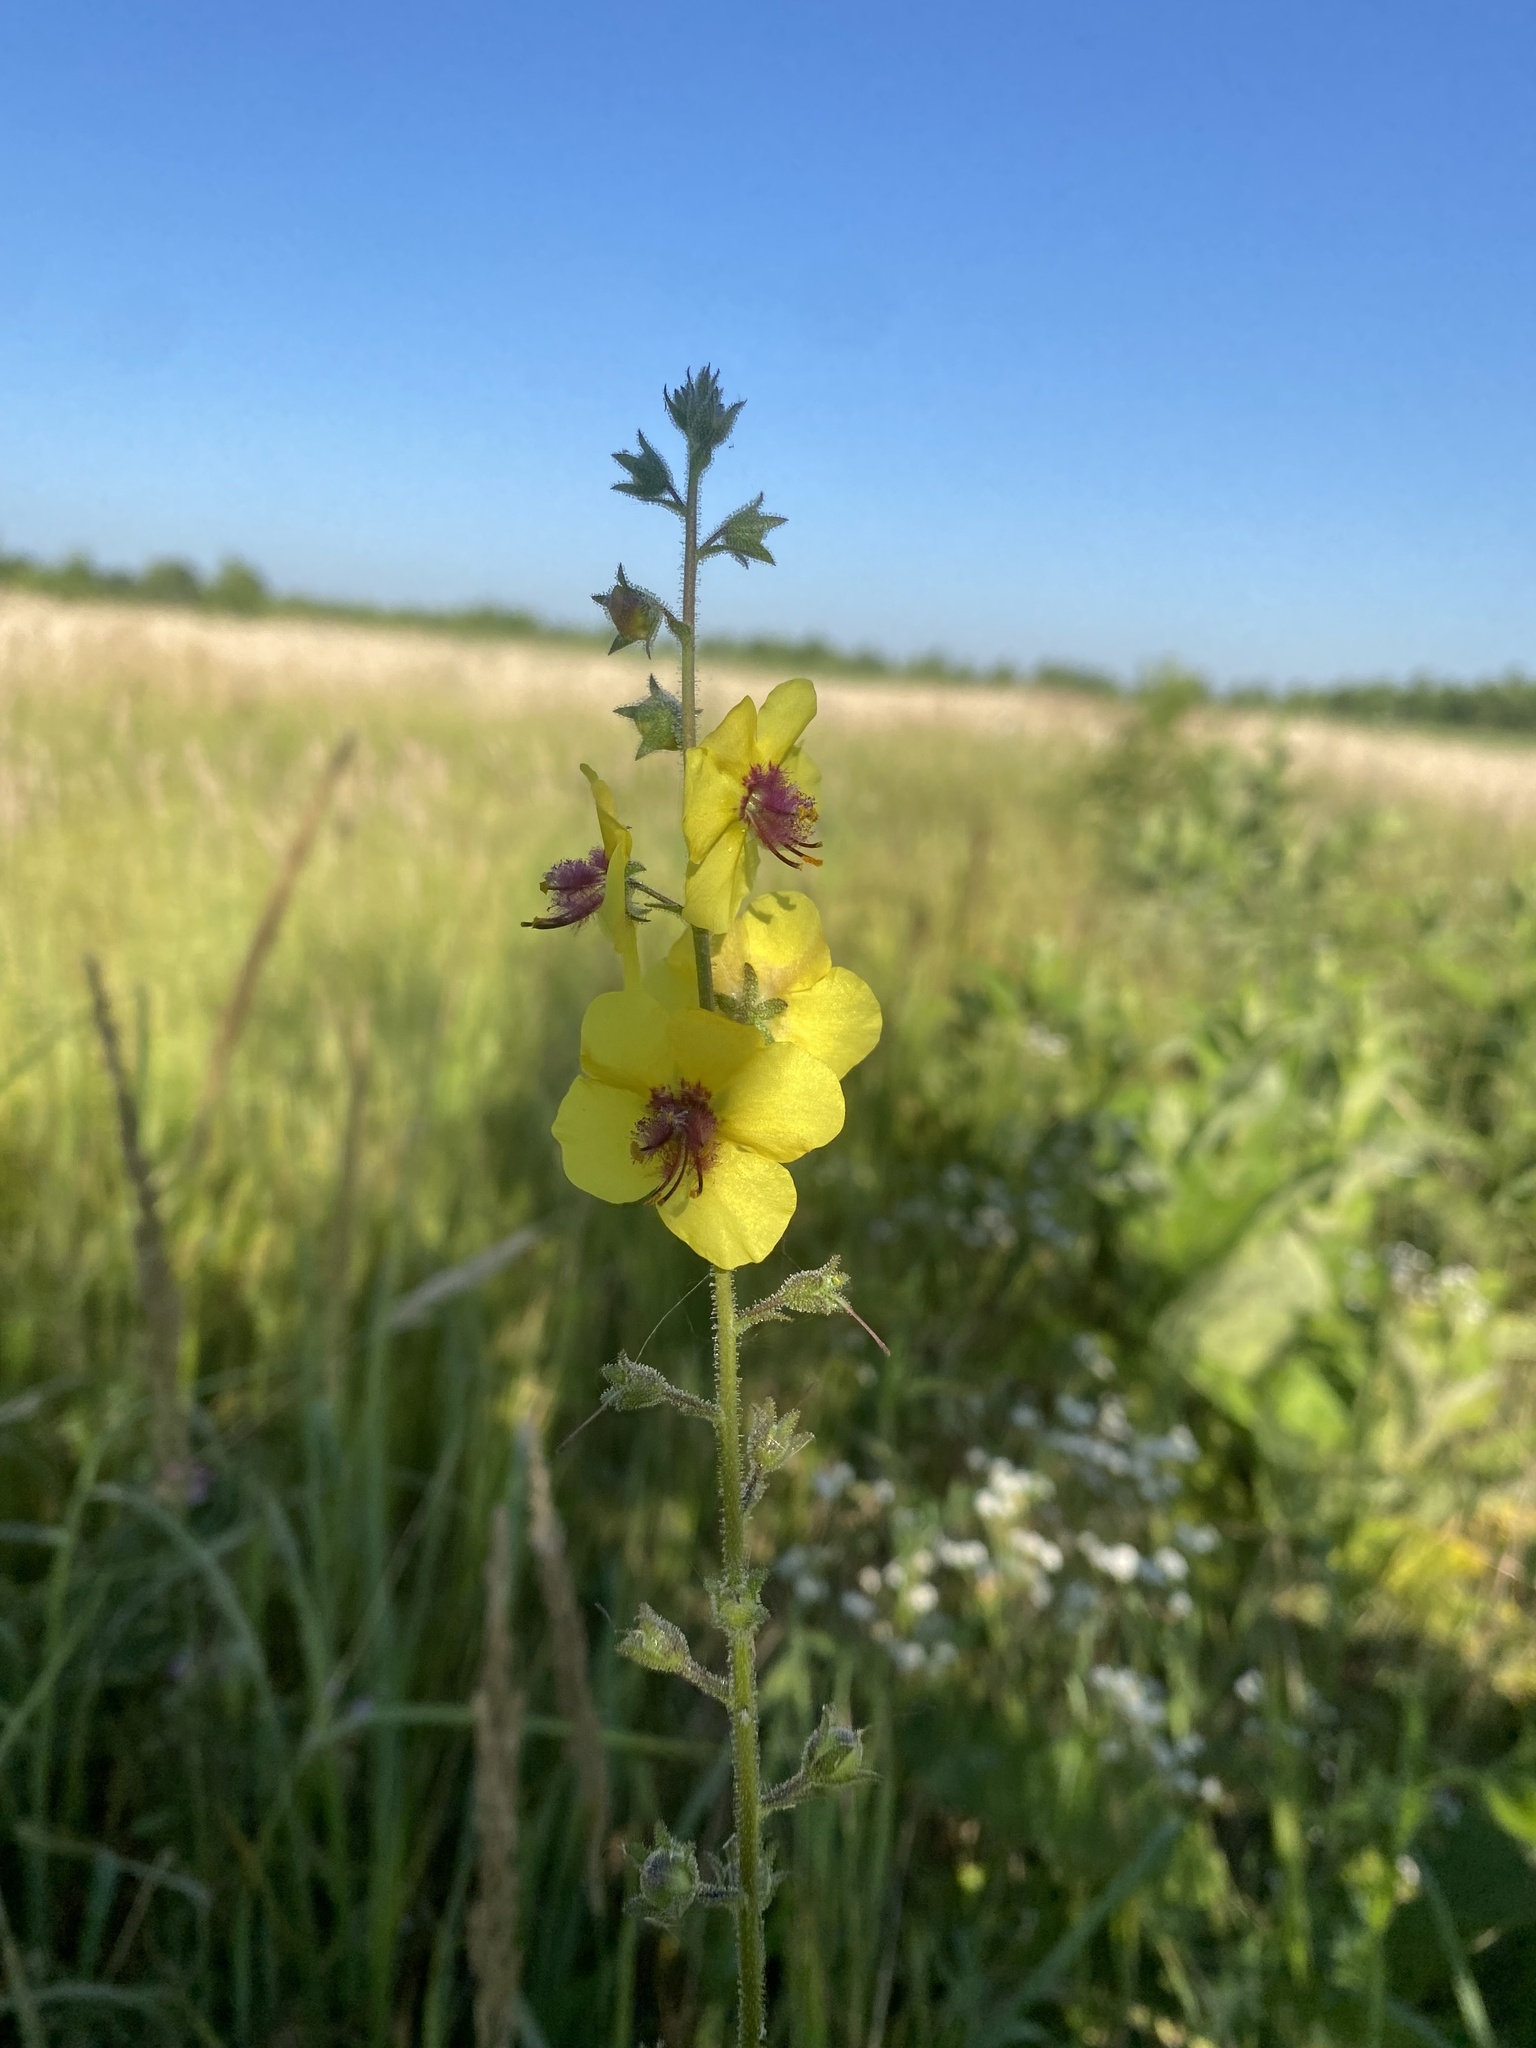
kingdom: Plantae
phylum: Tracheophyta
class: Magnoliopsida
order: Lamiales
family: Scrophulariaceae
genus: Verbascum
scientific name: Verbascum blattaria
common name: Moth mullein
